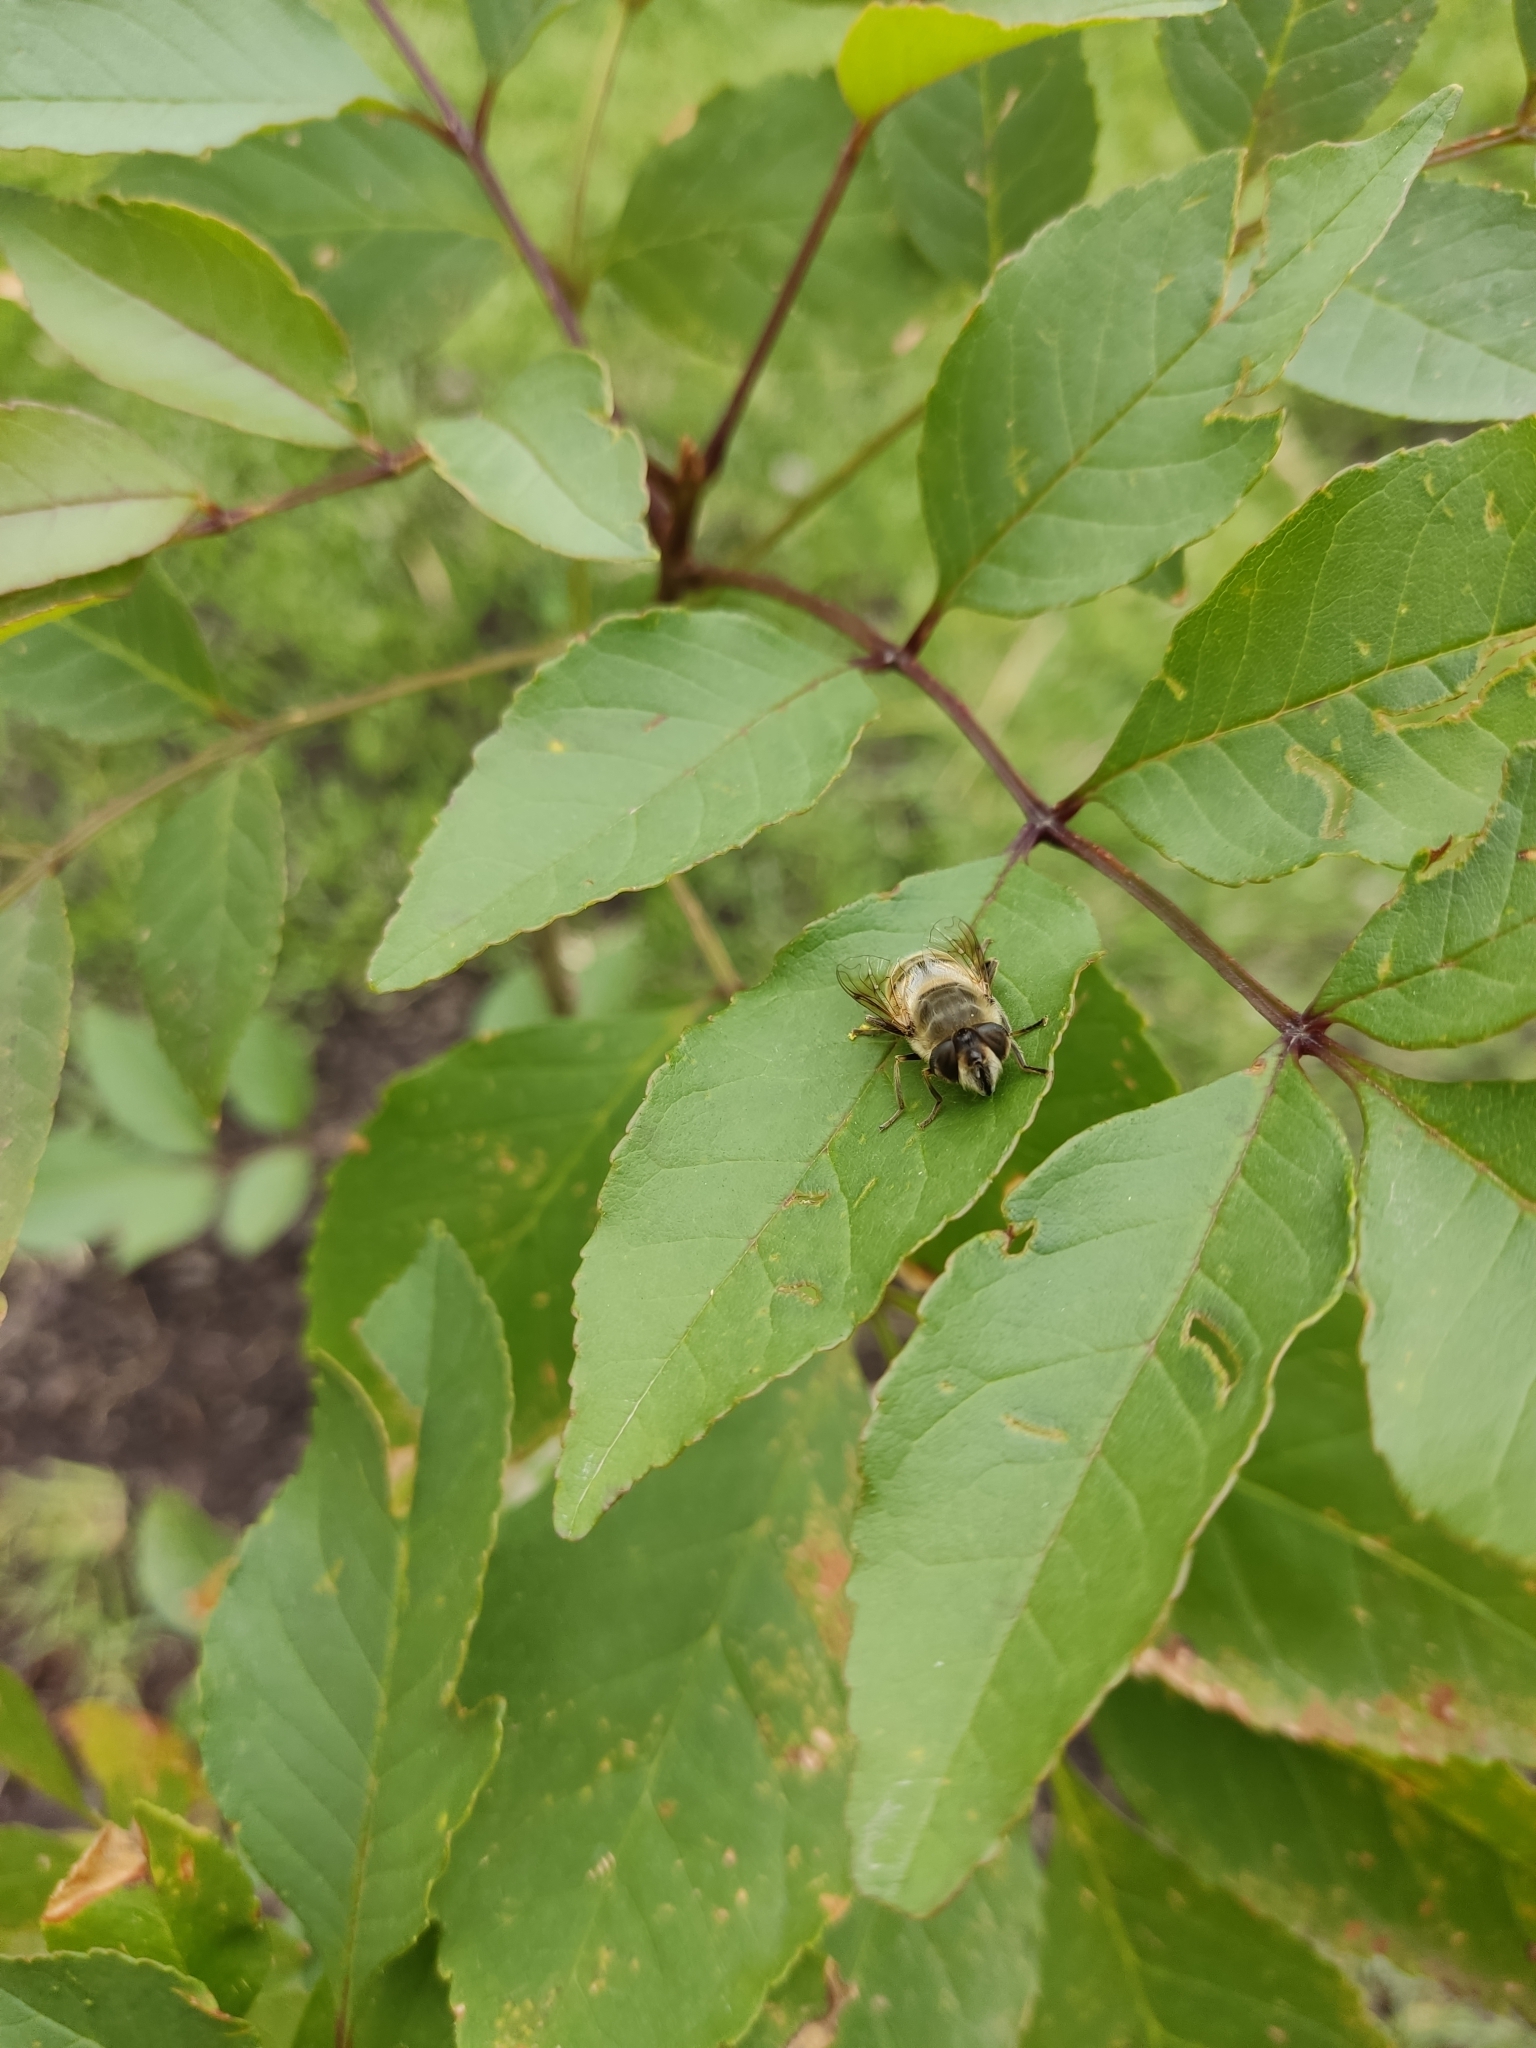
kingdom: Animalia
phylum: Arthropoda
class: Insecta
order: Diptera
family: Syrphidae
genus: Eristalis
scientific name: Eristalis tenax
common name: Drone fly
